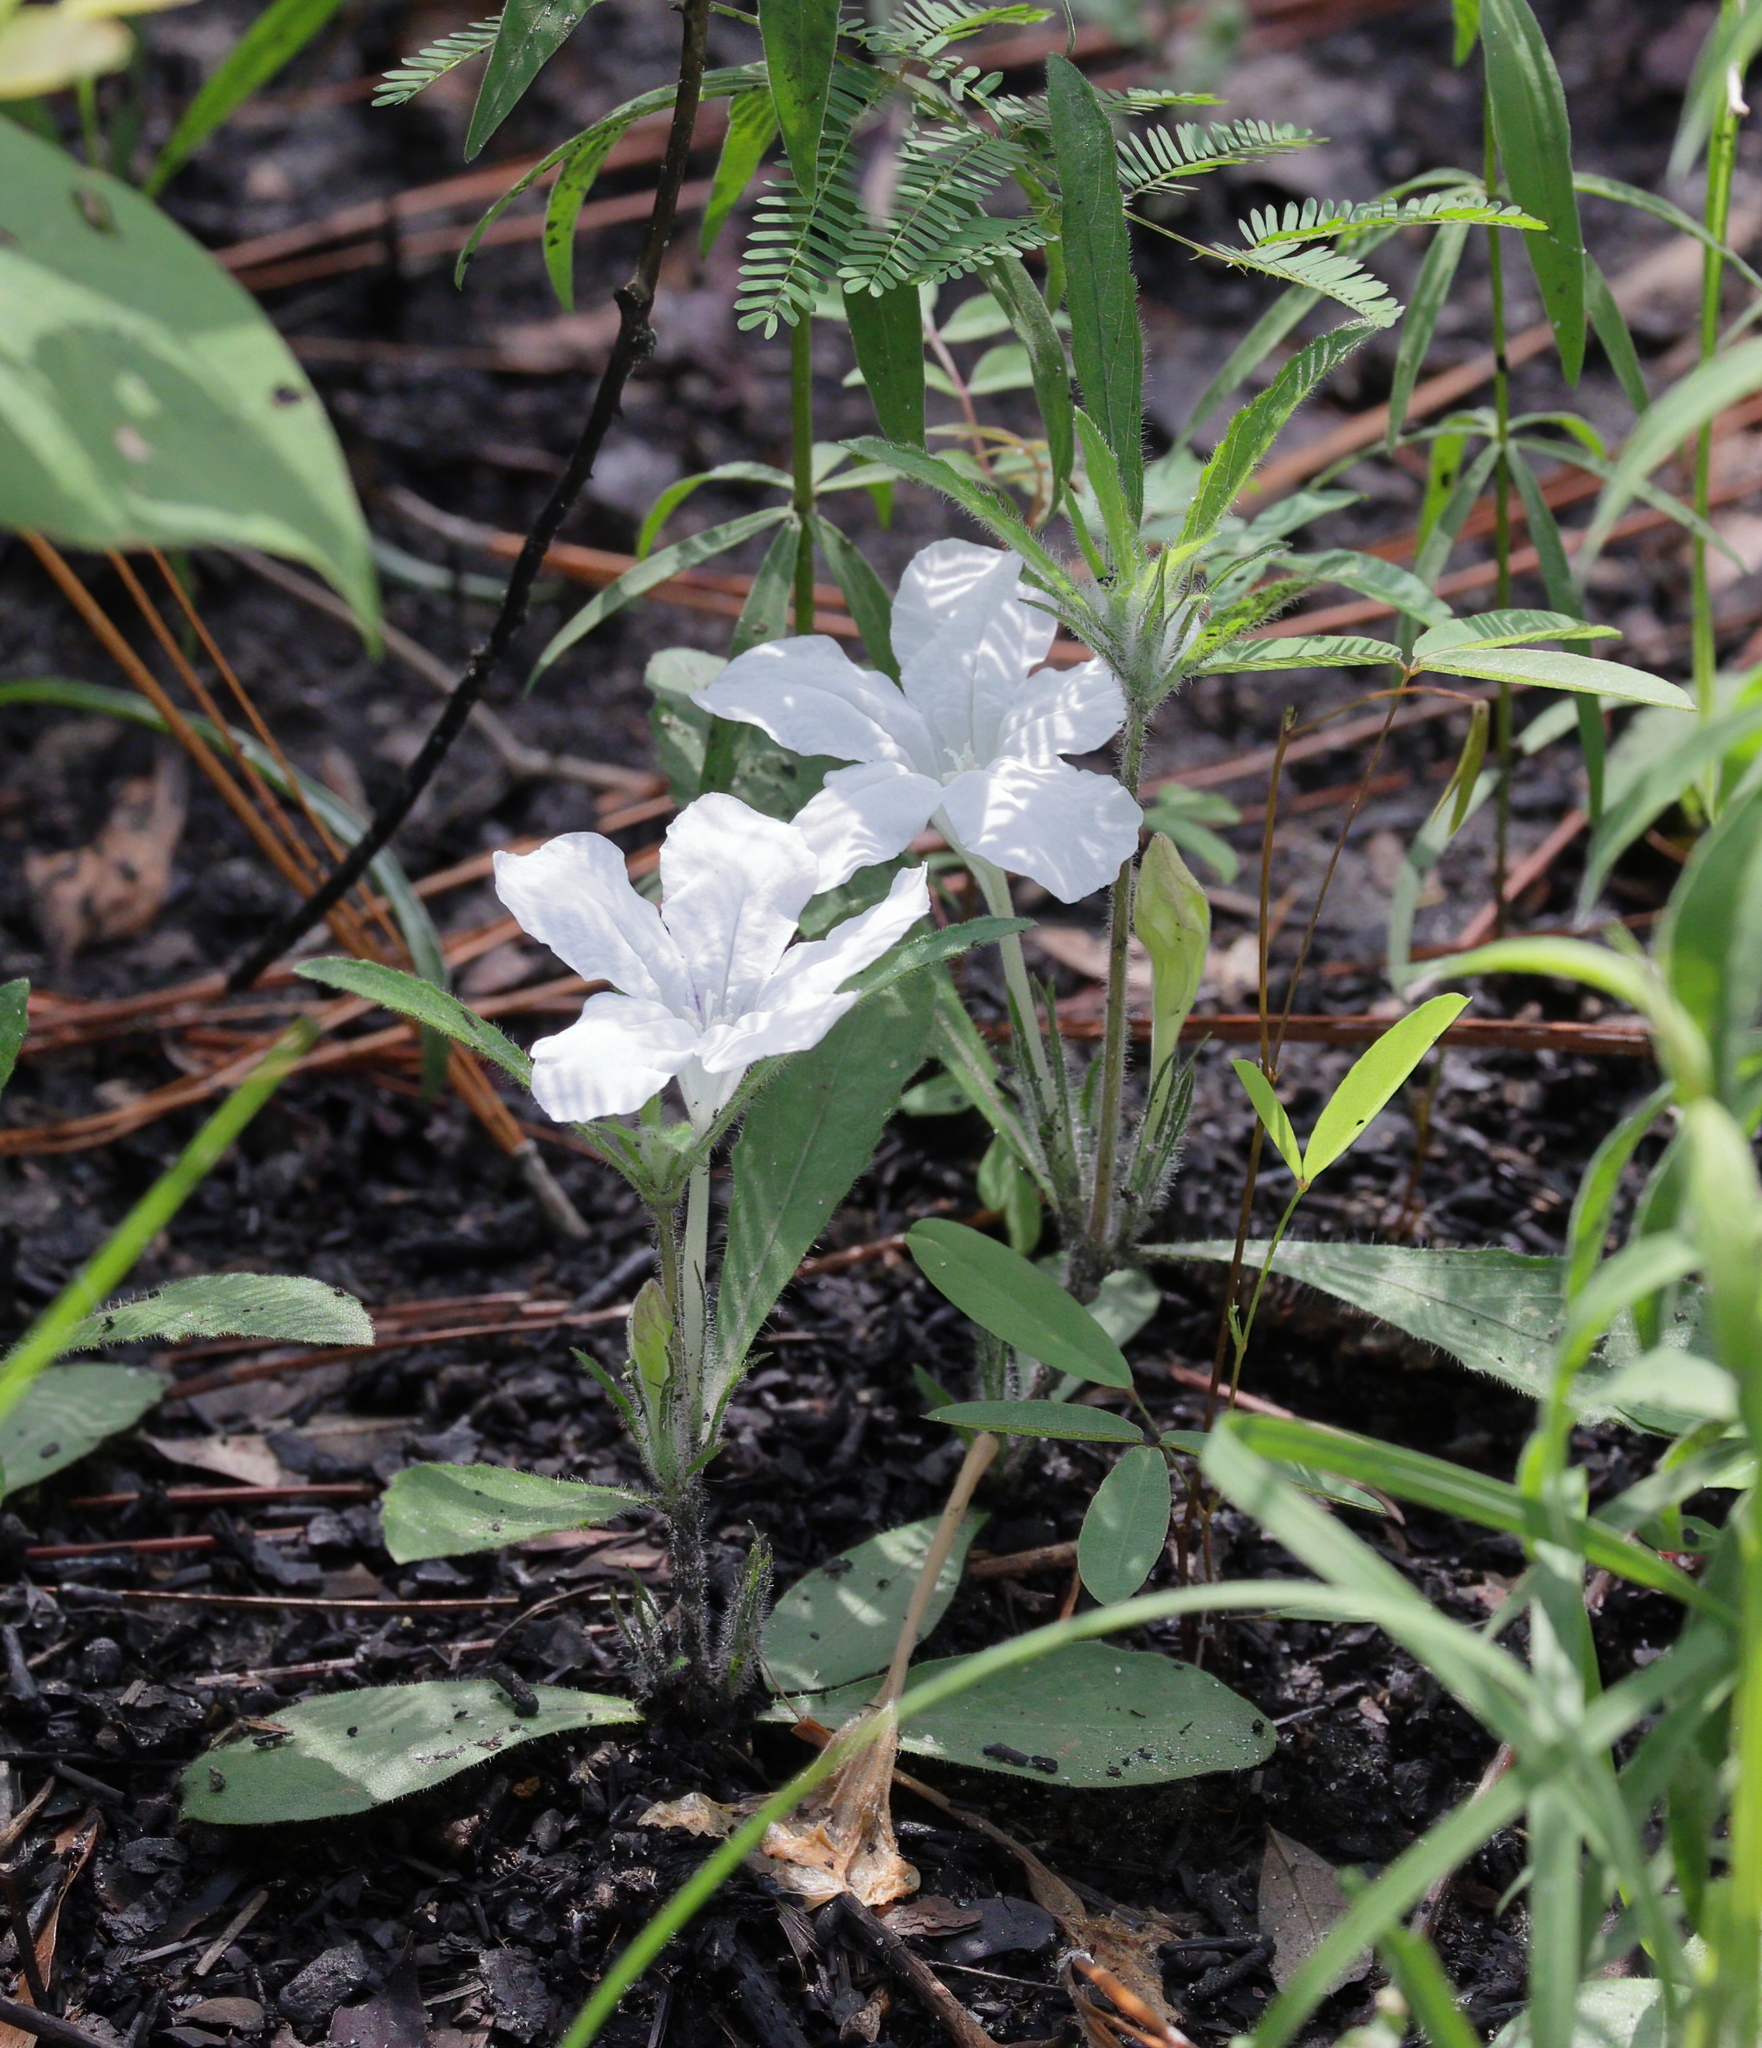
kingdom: Plantae
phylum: Tracheophyta
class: Magnoliopsida
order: Lamiales
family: Acanthaceae
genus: Ruellia
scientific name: Ruellia caroliniensis
